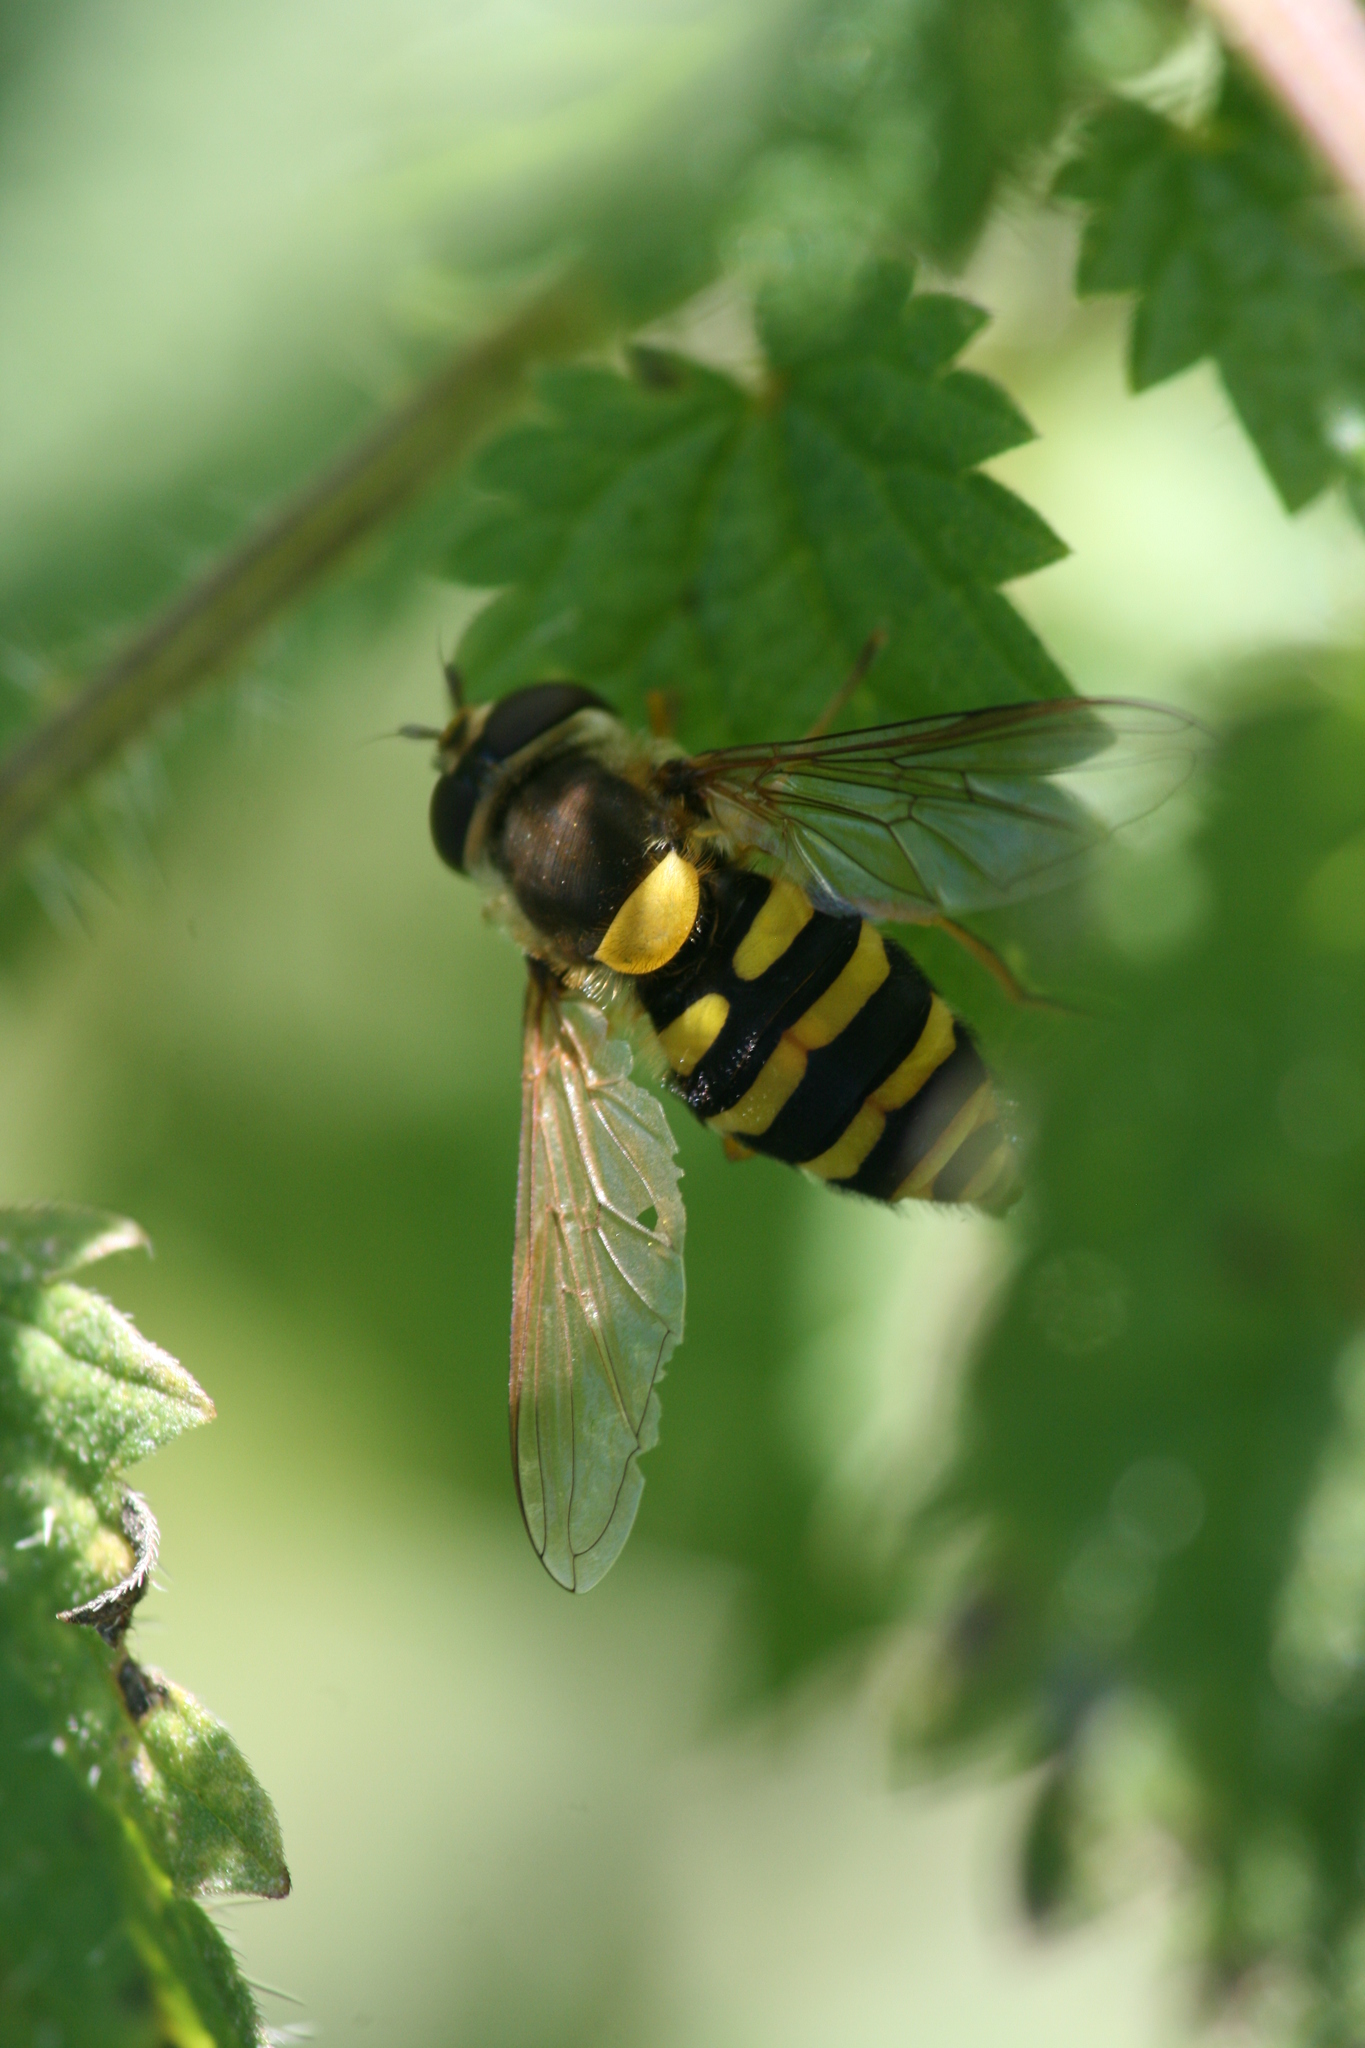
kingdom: Animalia
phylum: Arthropoda
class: Insecta
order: Diptera
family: Syrphidae
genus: Syrphus
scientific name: Syrphus
